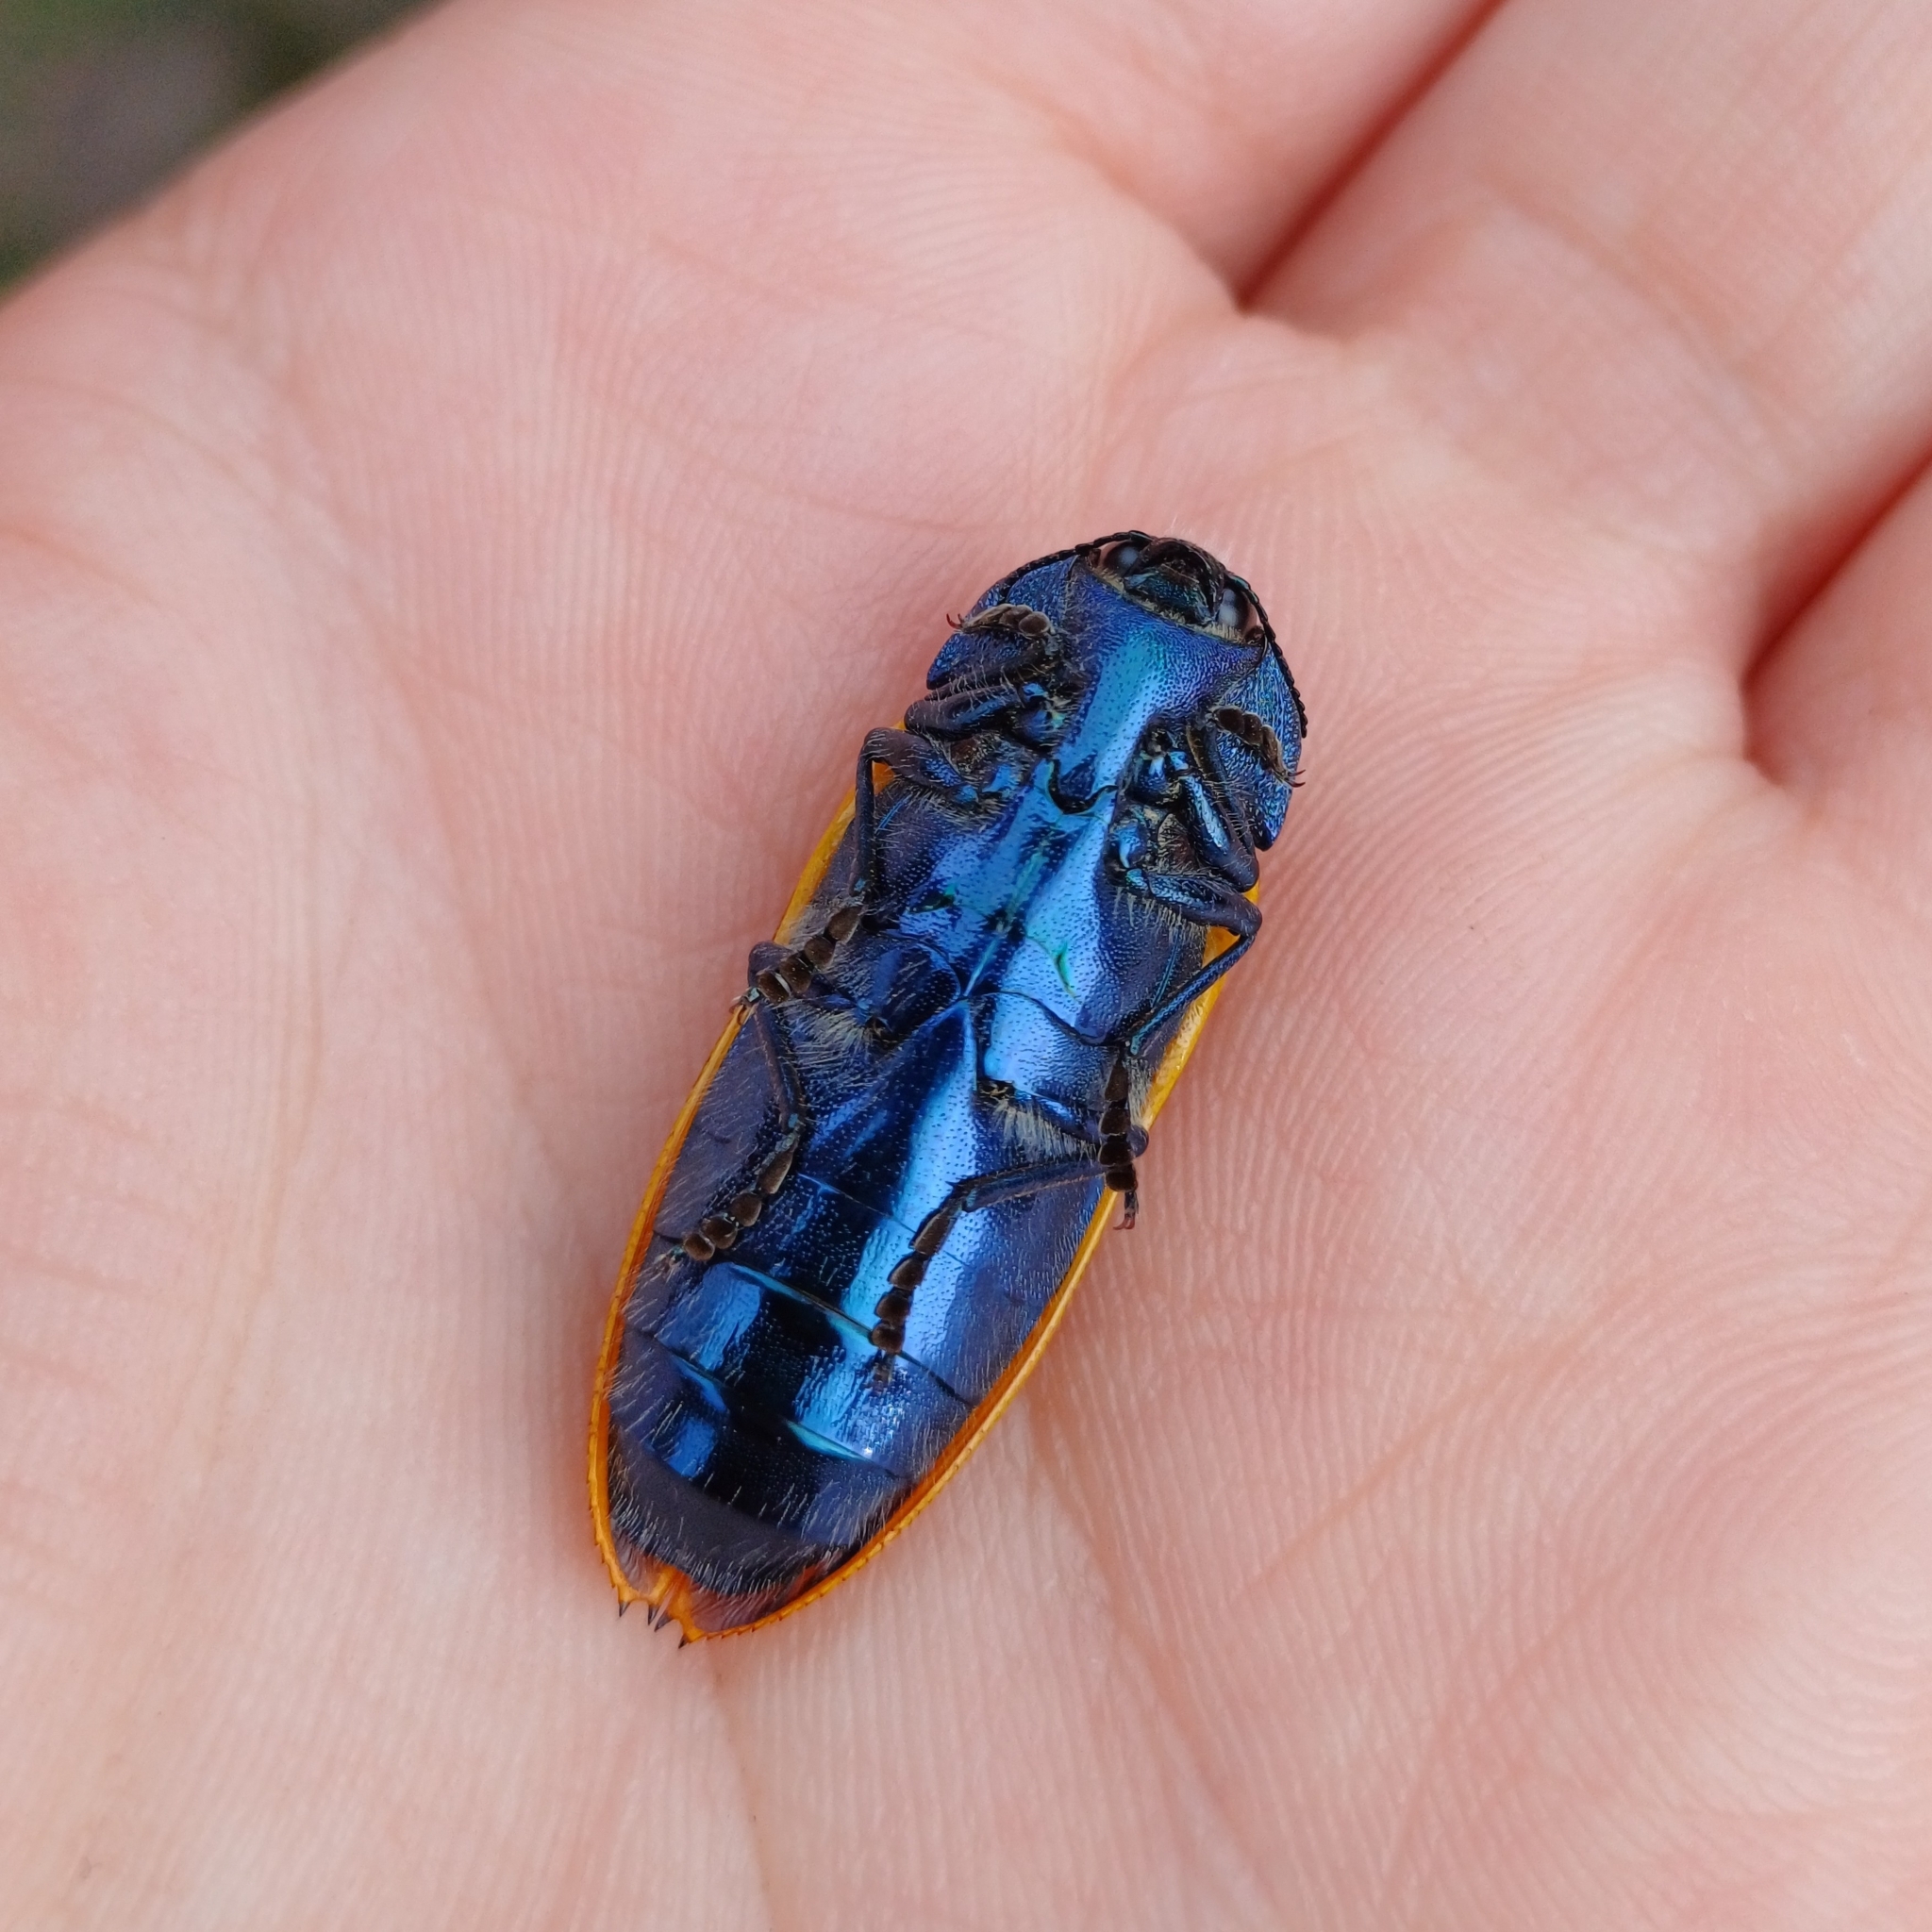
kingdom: Animalia
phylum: Arthropoda
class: Insecta
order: Coleoptera
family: Buprestidae
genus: Conognatha
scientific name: Conognatha klugii
